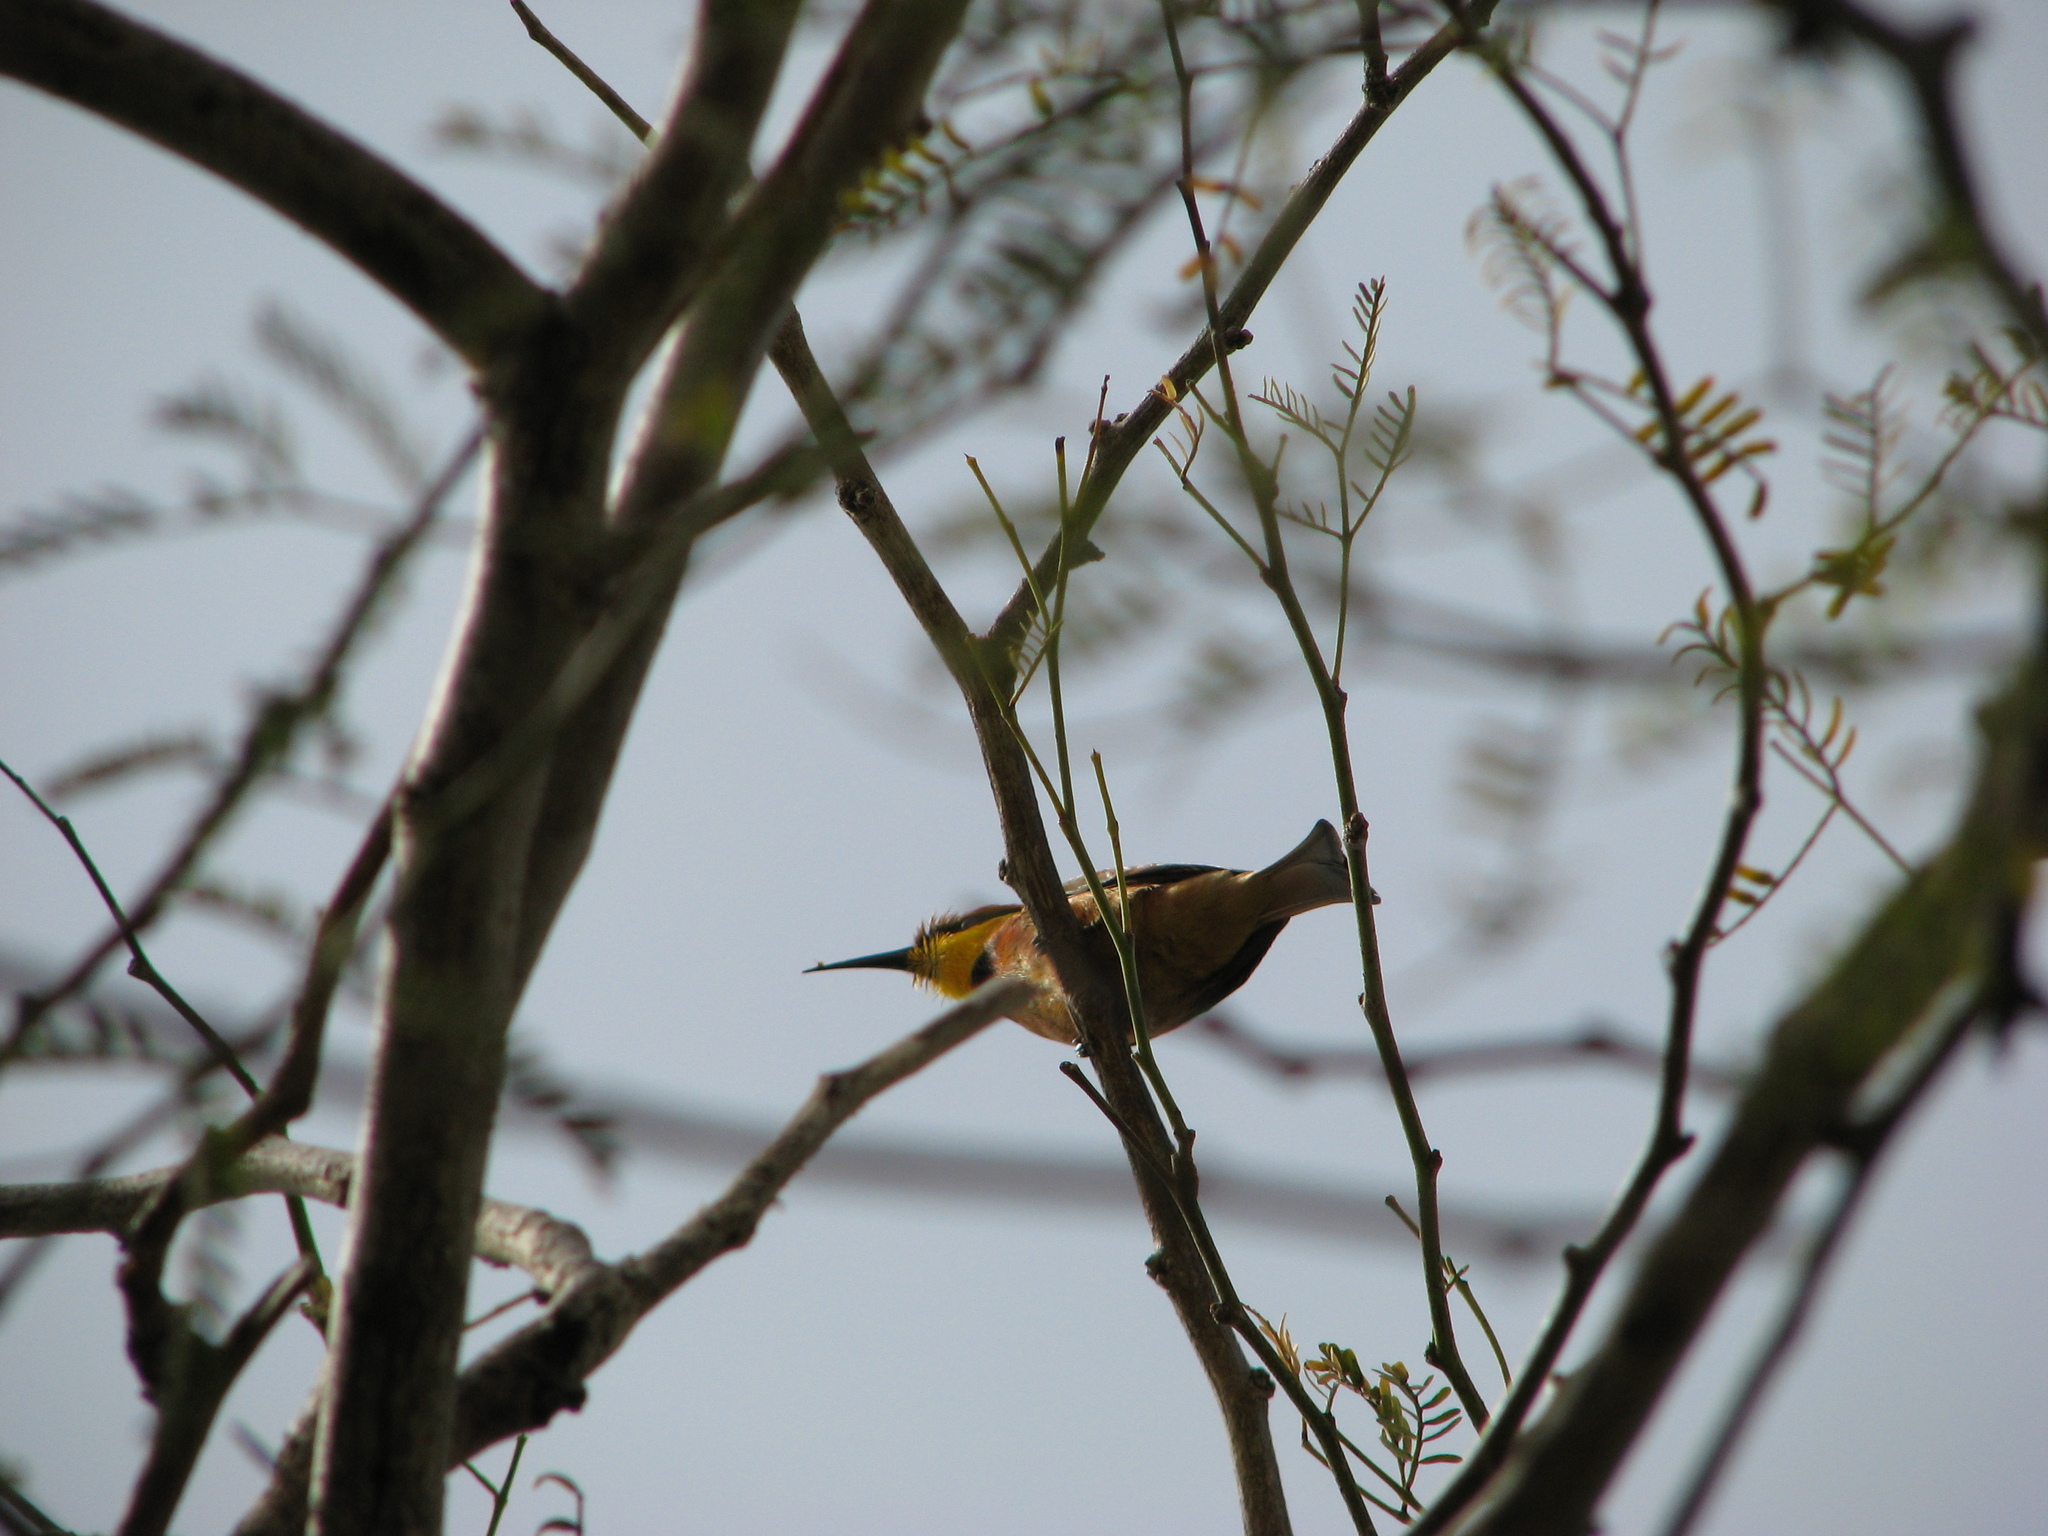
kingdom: Animalia
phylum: Chordata
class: Aves
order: Coraciiformes
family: Meropidae
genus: Merops
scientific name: Merops pusillus
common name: Little bee-eater
